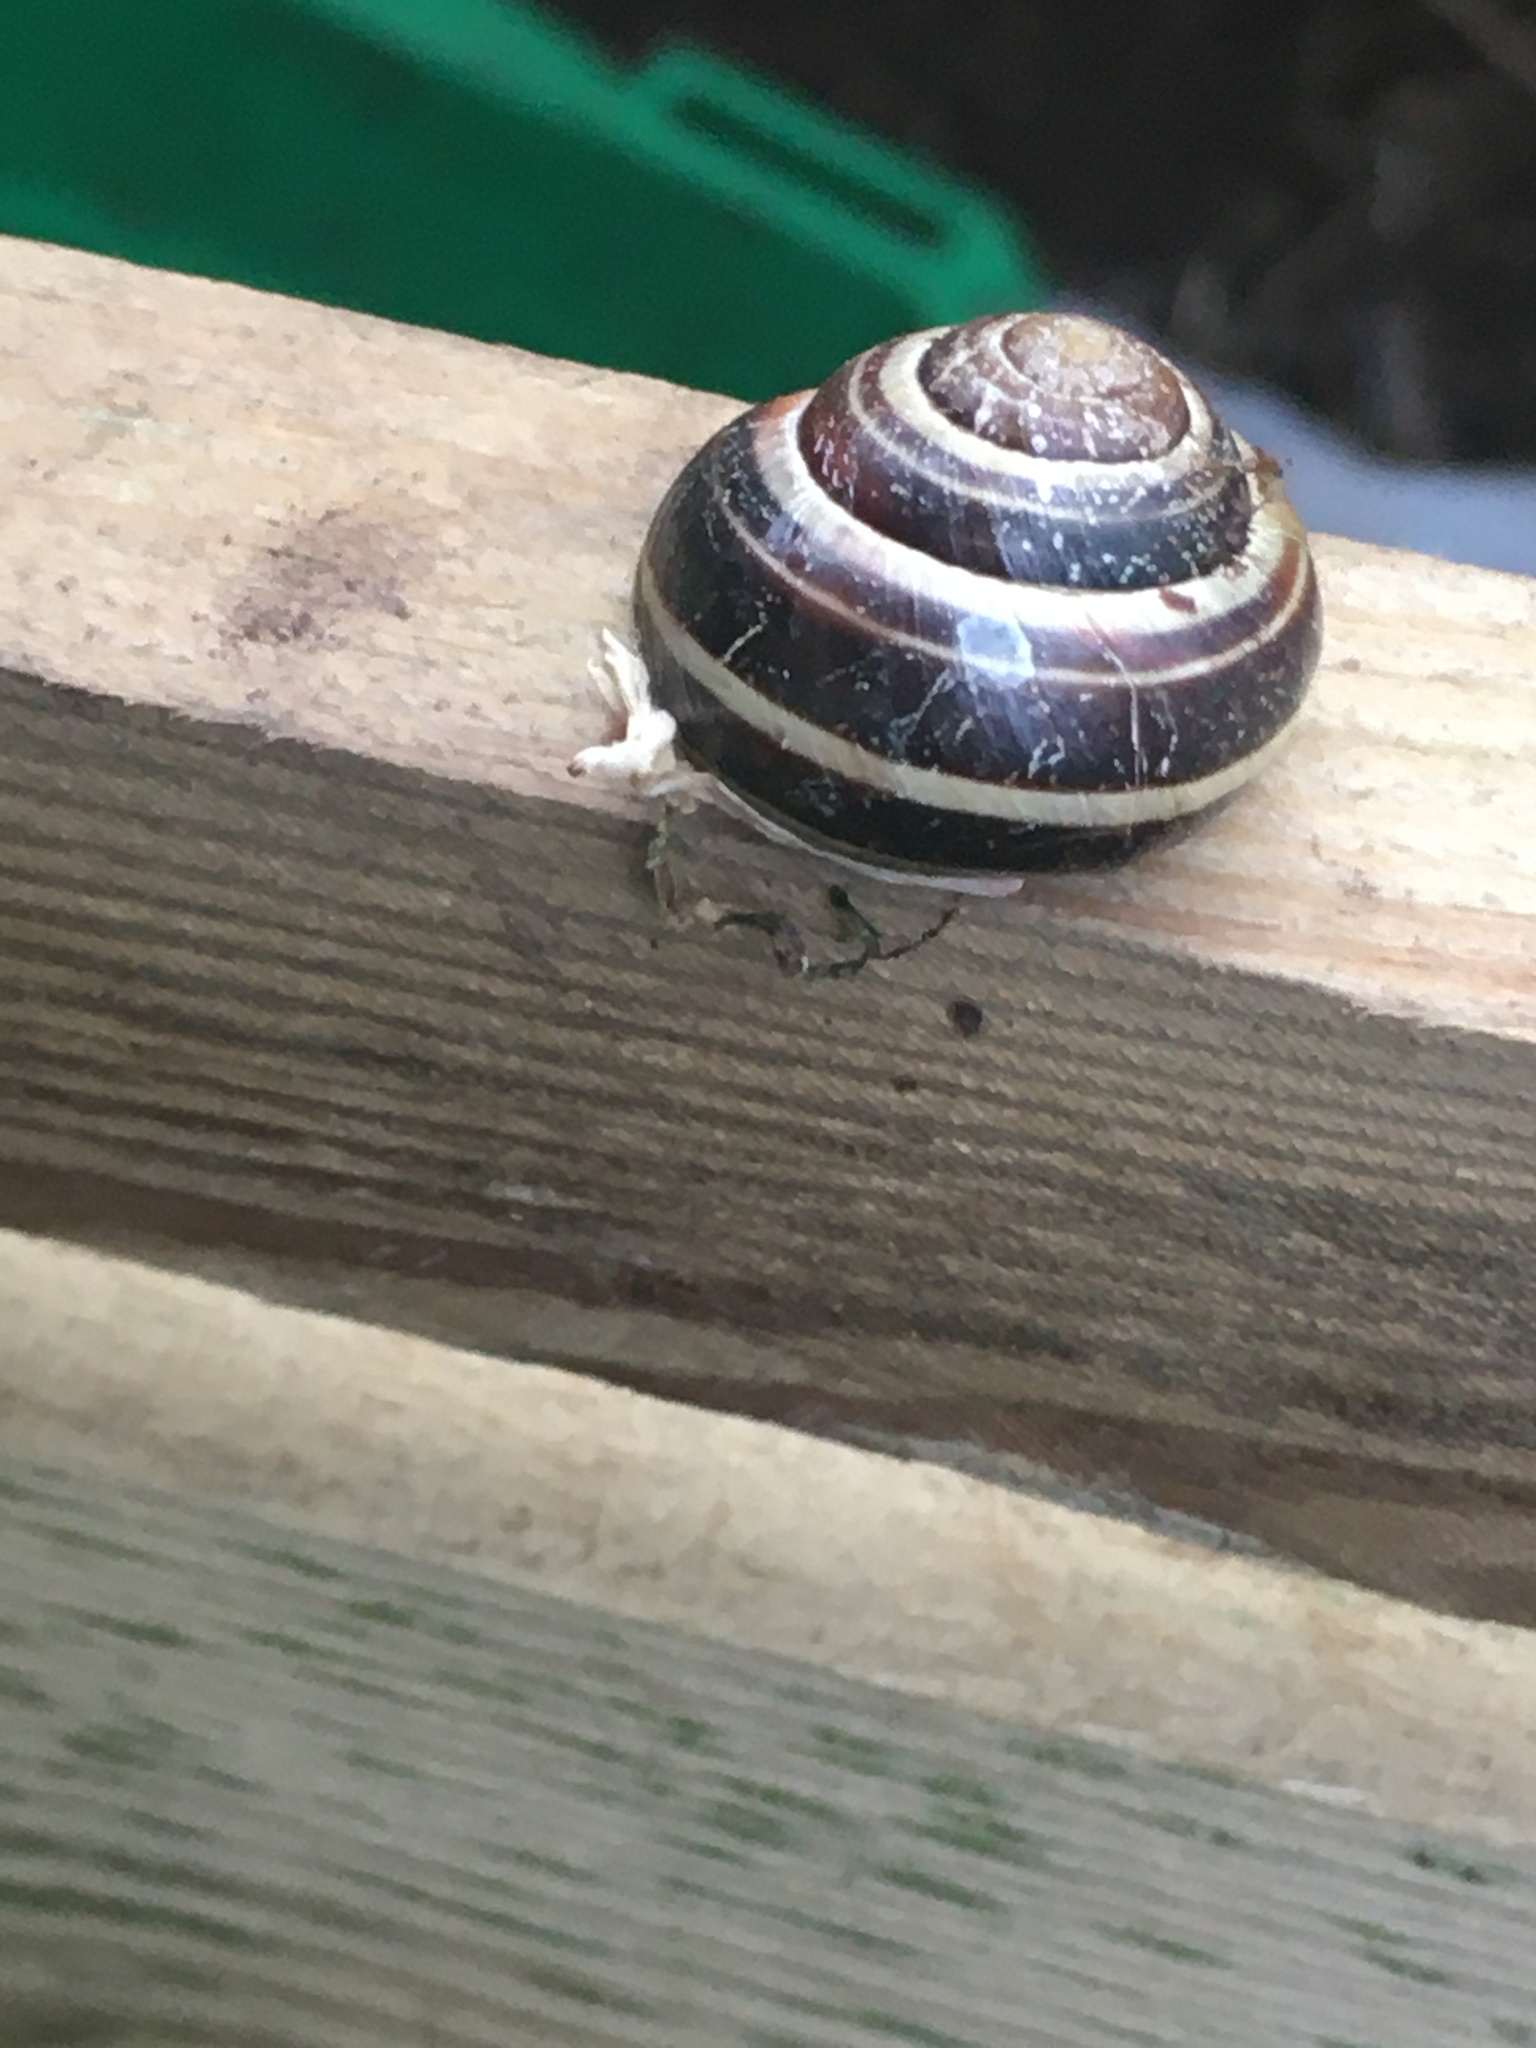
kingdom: Animalia
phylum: Mollusca
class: Gastropoda
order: Stylommatophora
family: Helicidae
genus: Cepaea
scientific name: Cepaea nemoralis
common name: Grovesnail
